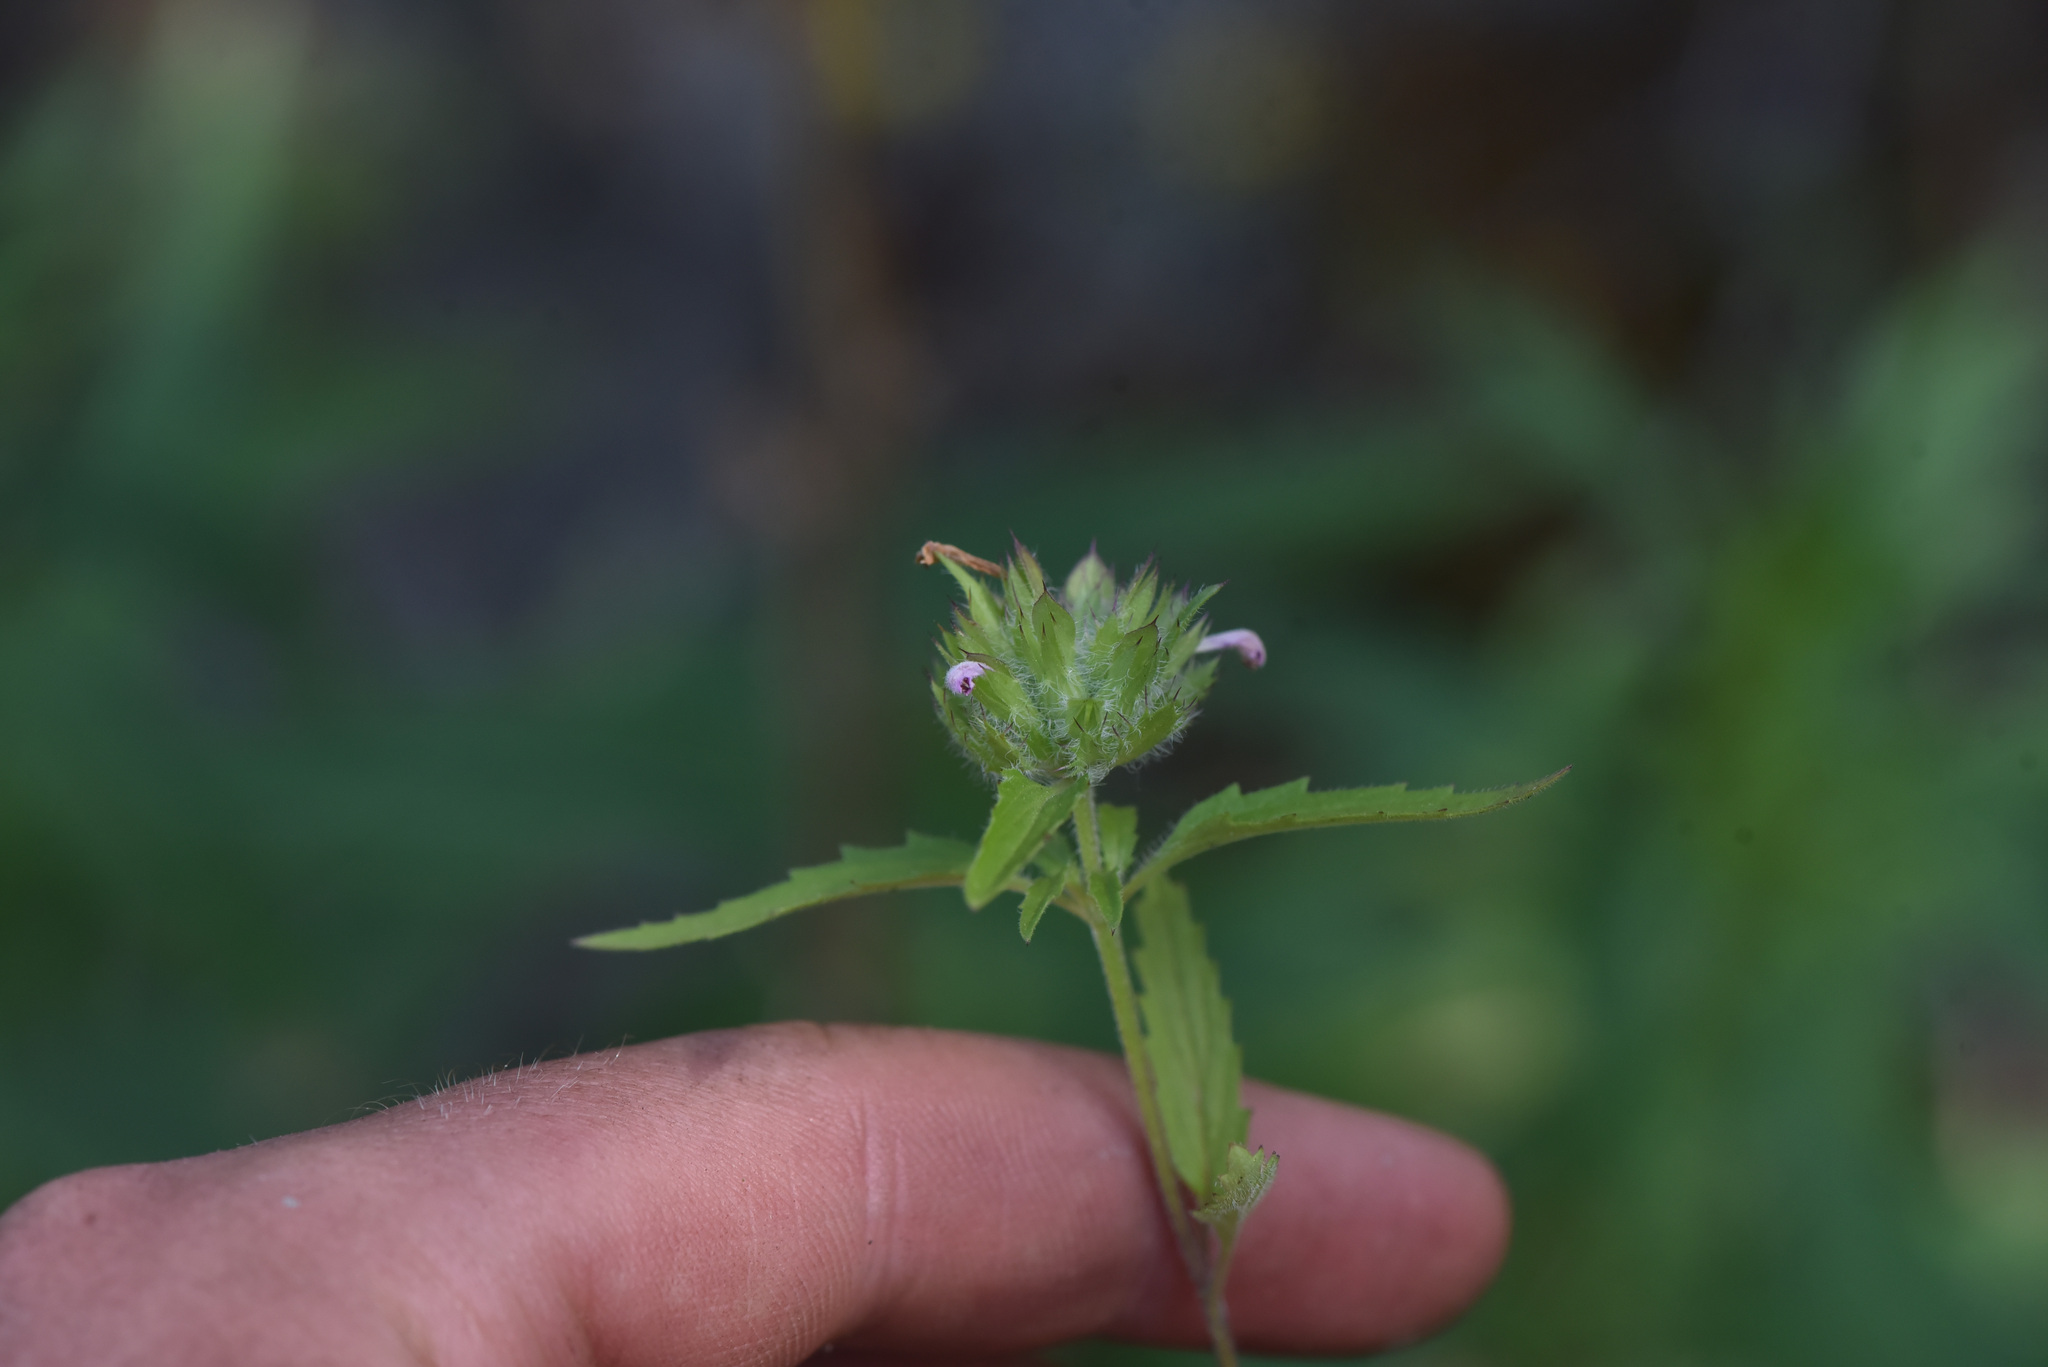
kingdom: Plantae
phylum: Tracheophyta
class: Magnoliopsida
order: Lamiales
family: Lamiaceae
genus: Dracocephalum
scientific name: Dracocephalum parviflorum
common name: American dragonhead
